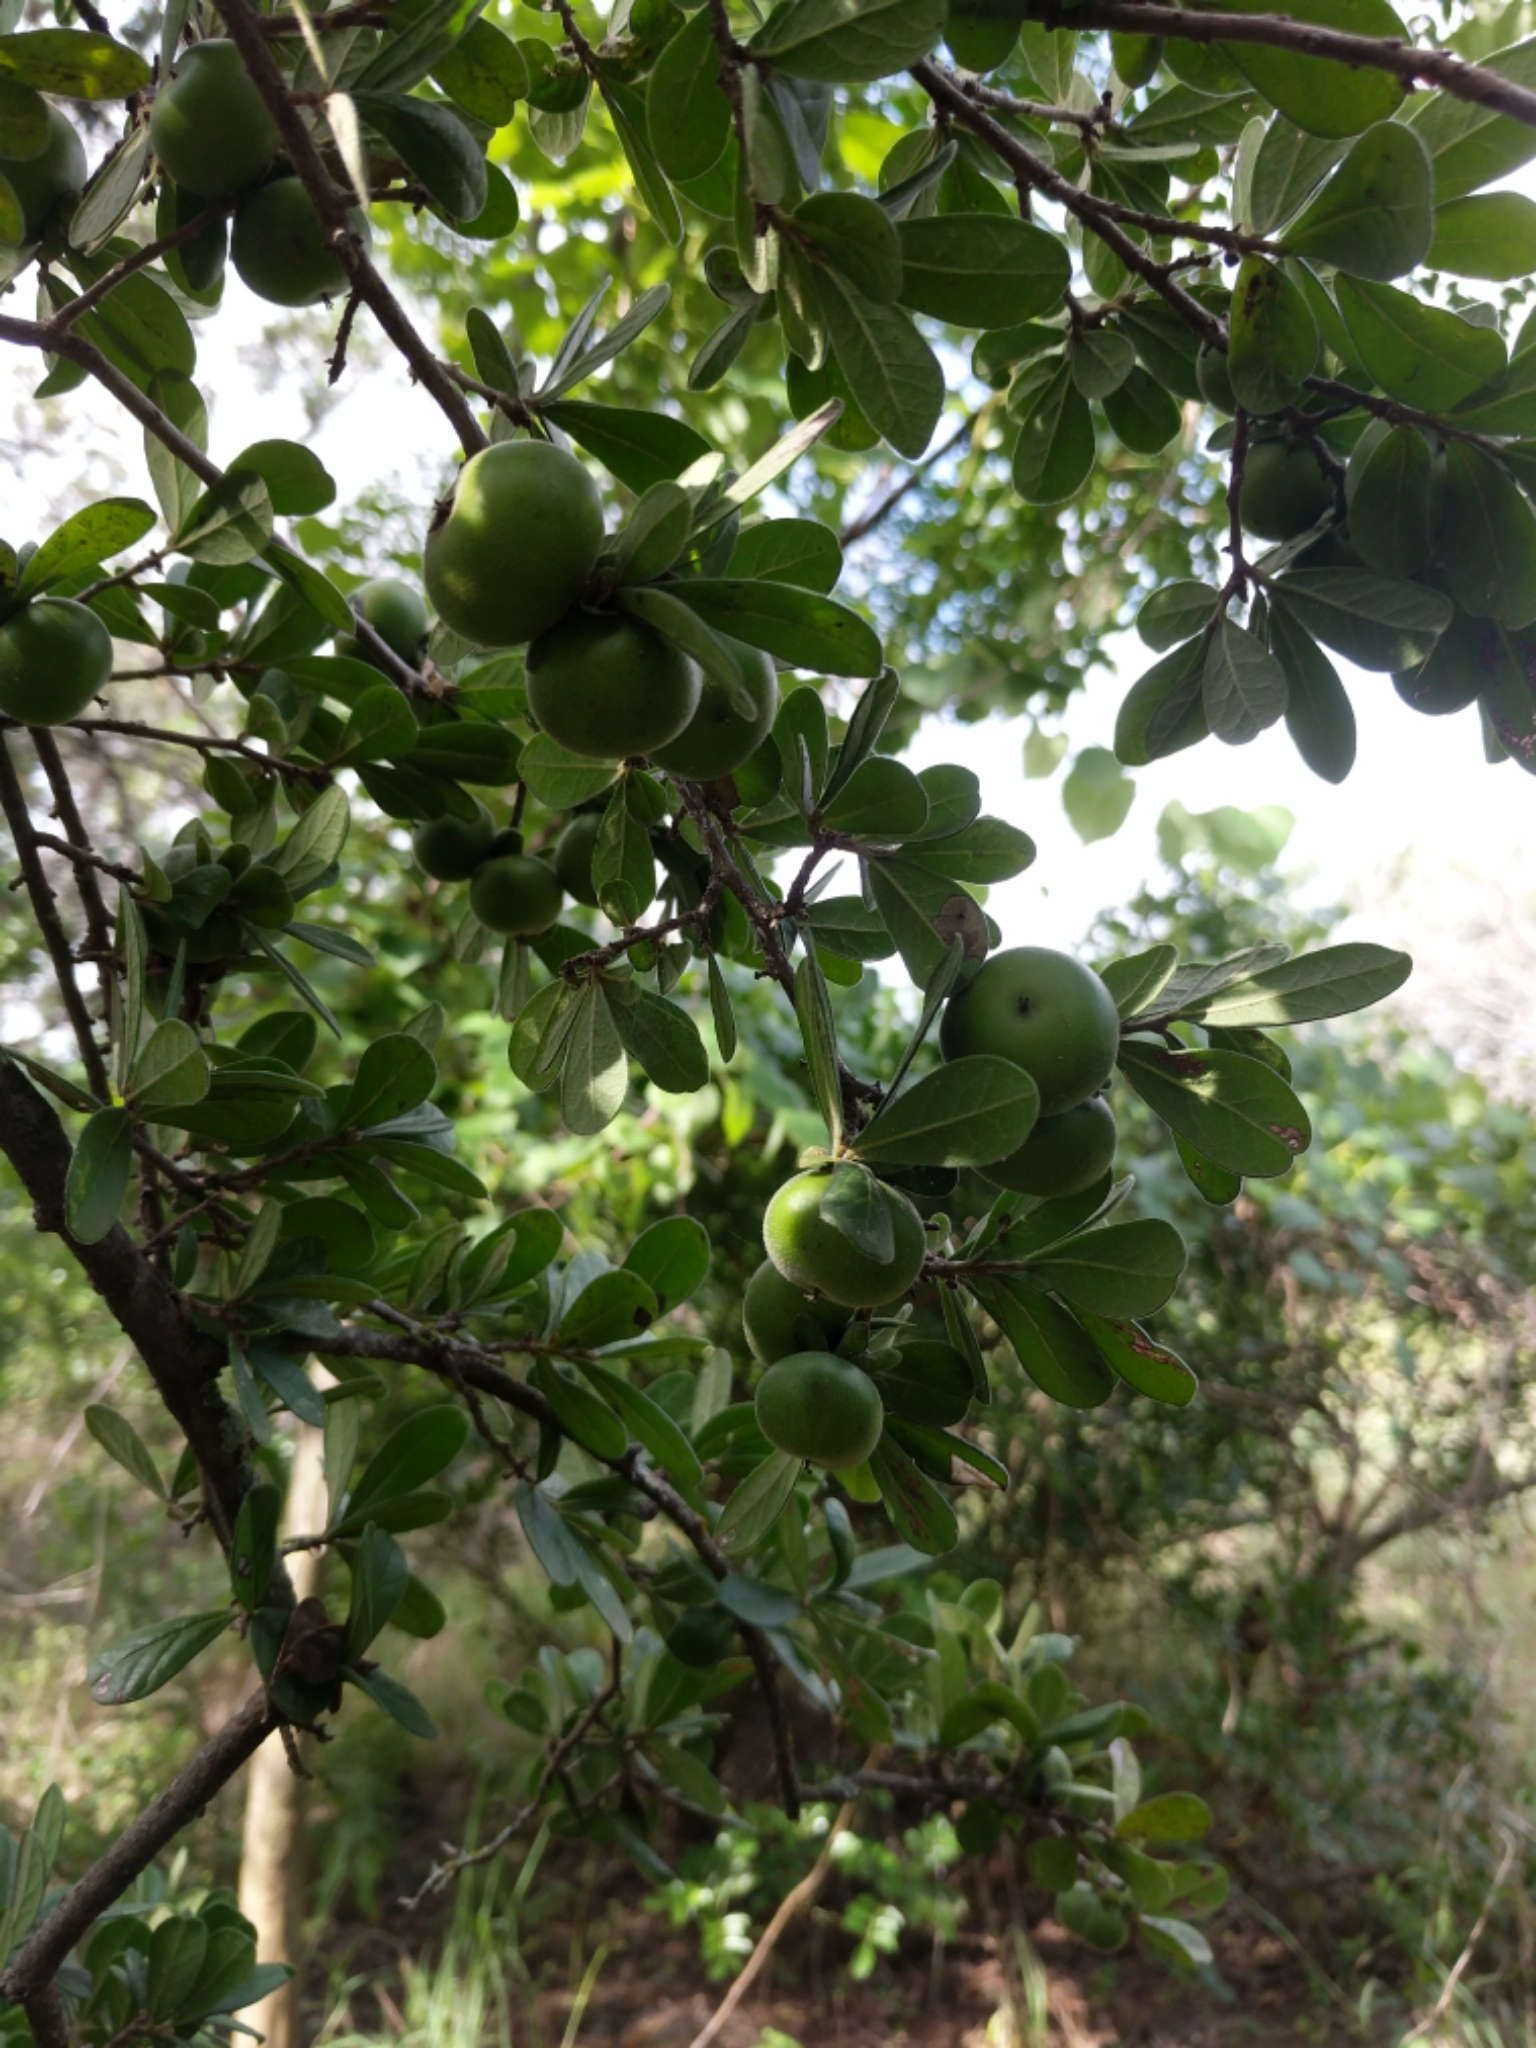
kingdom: Plantae
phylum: Tracheophyta
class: Magnoliopsida
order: Ericales
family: Ebenaceae
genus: Diospyros
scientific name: Diospyros texana
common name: Texas persimmon
